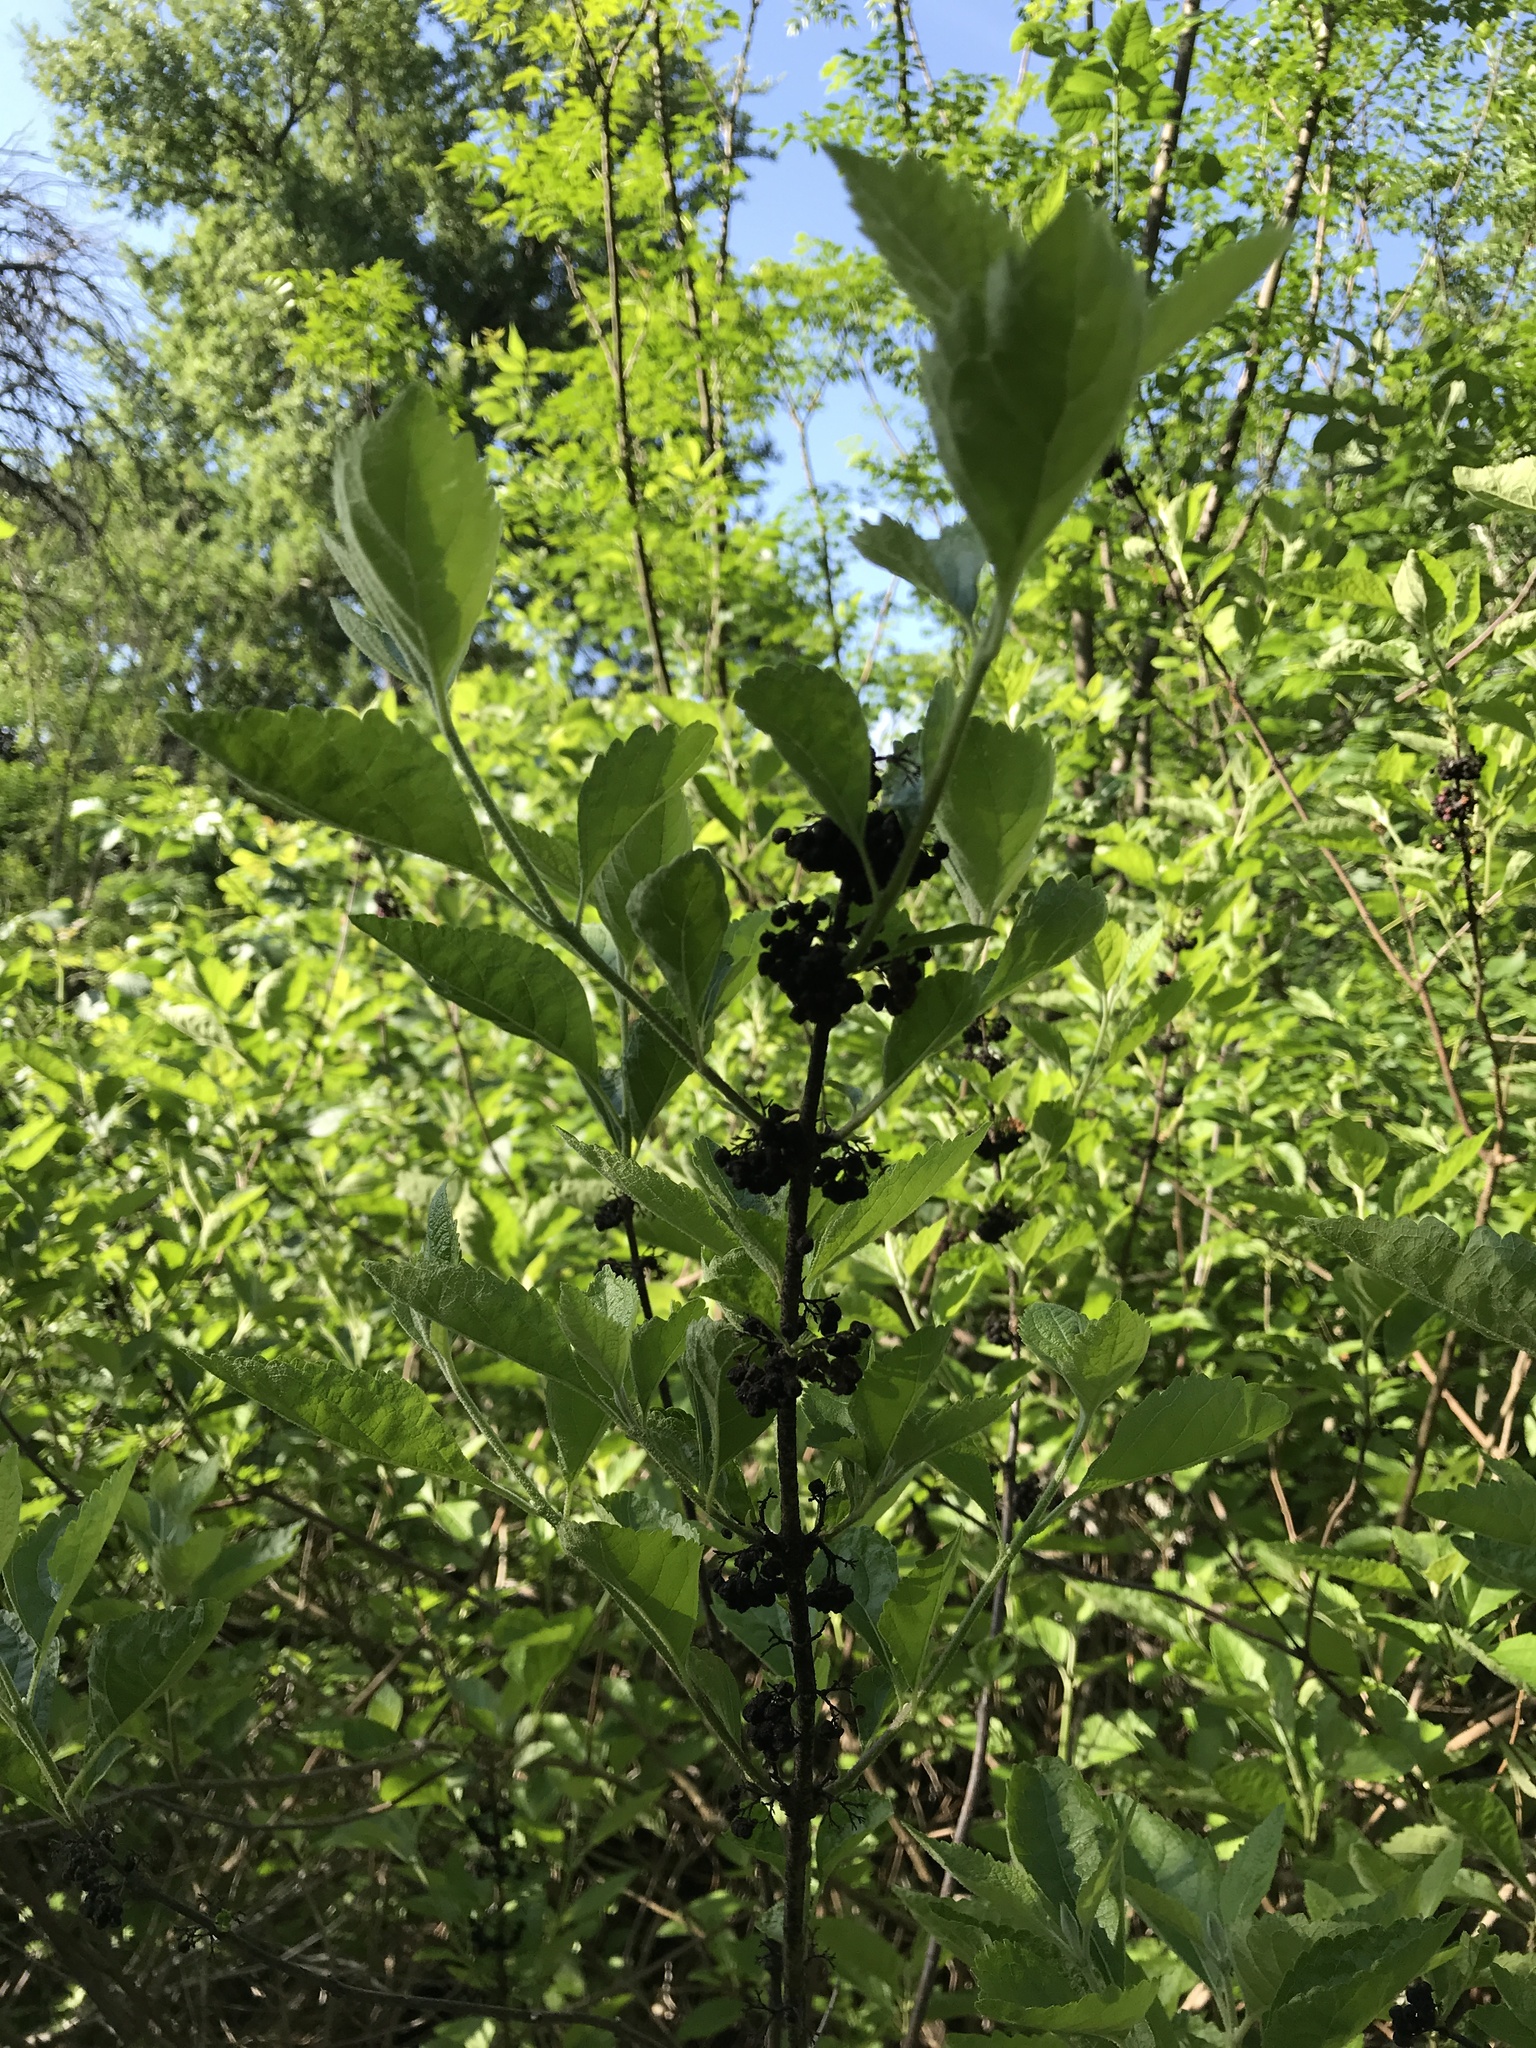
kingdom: Plantae
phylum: Tracheophyta
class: Magnoliopsida
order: Lamiales
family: Lamiaceae
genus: Callicarpa
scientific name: Callicarpa americana
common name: American beautyberry
